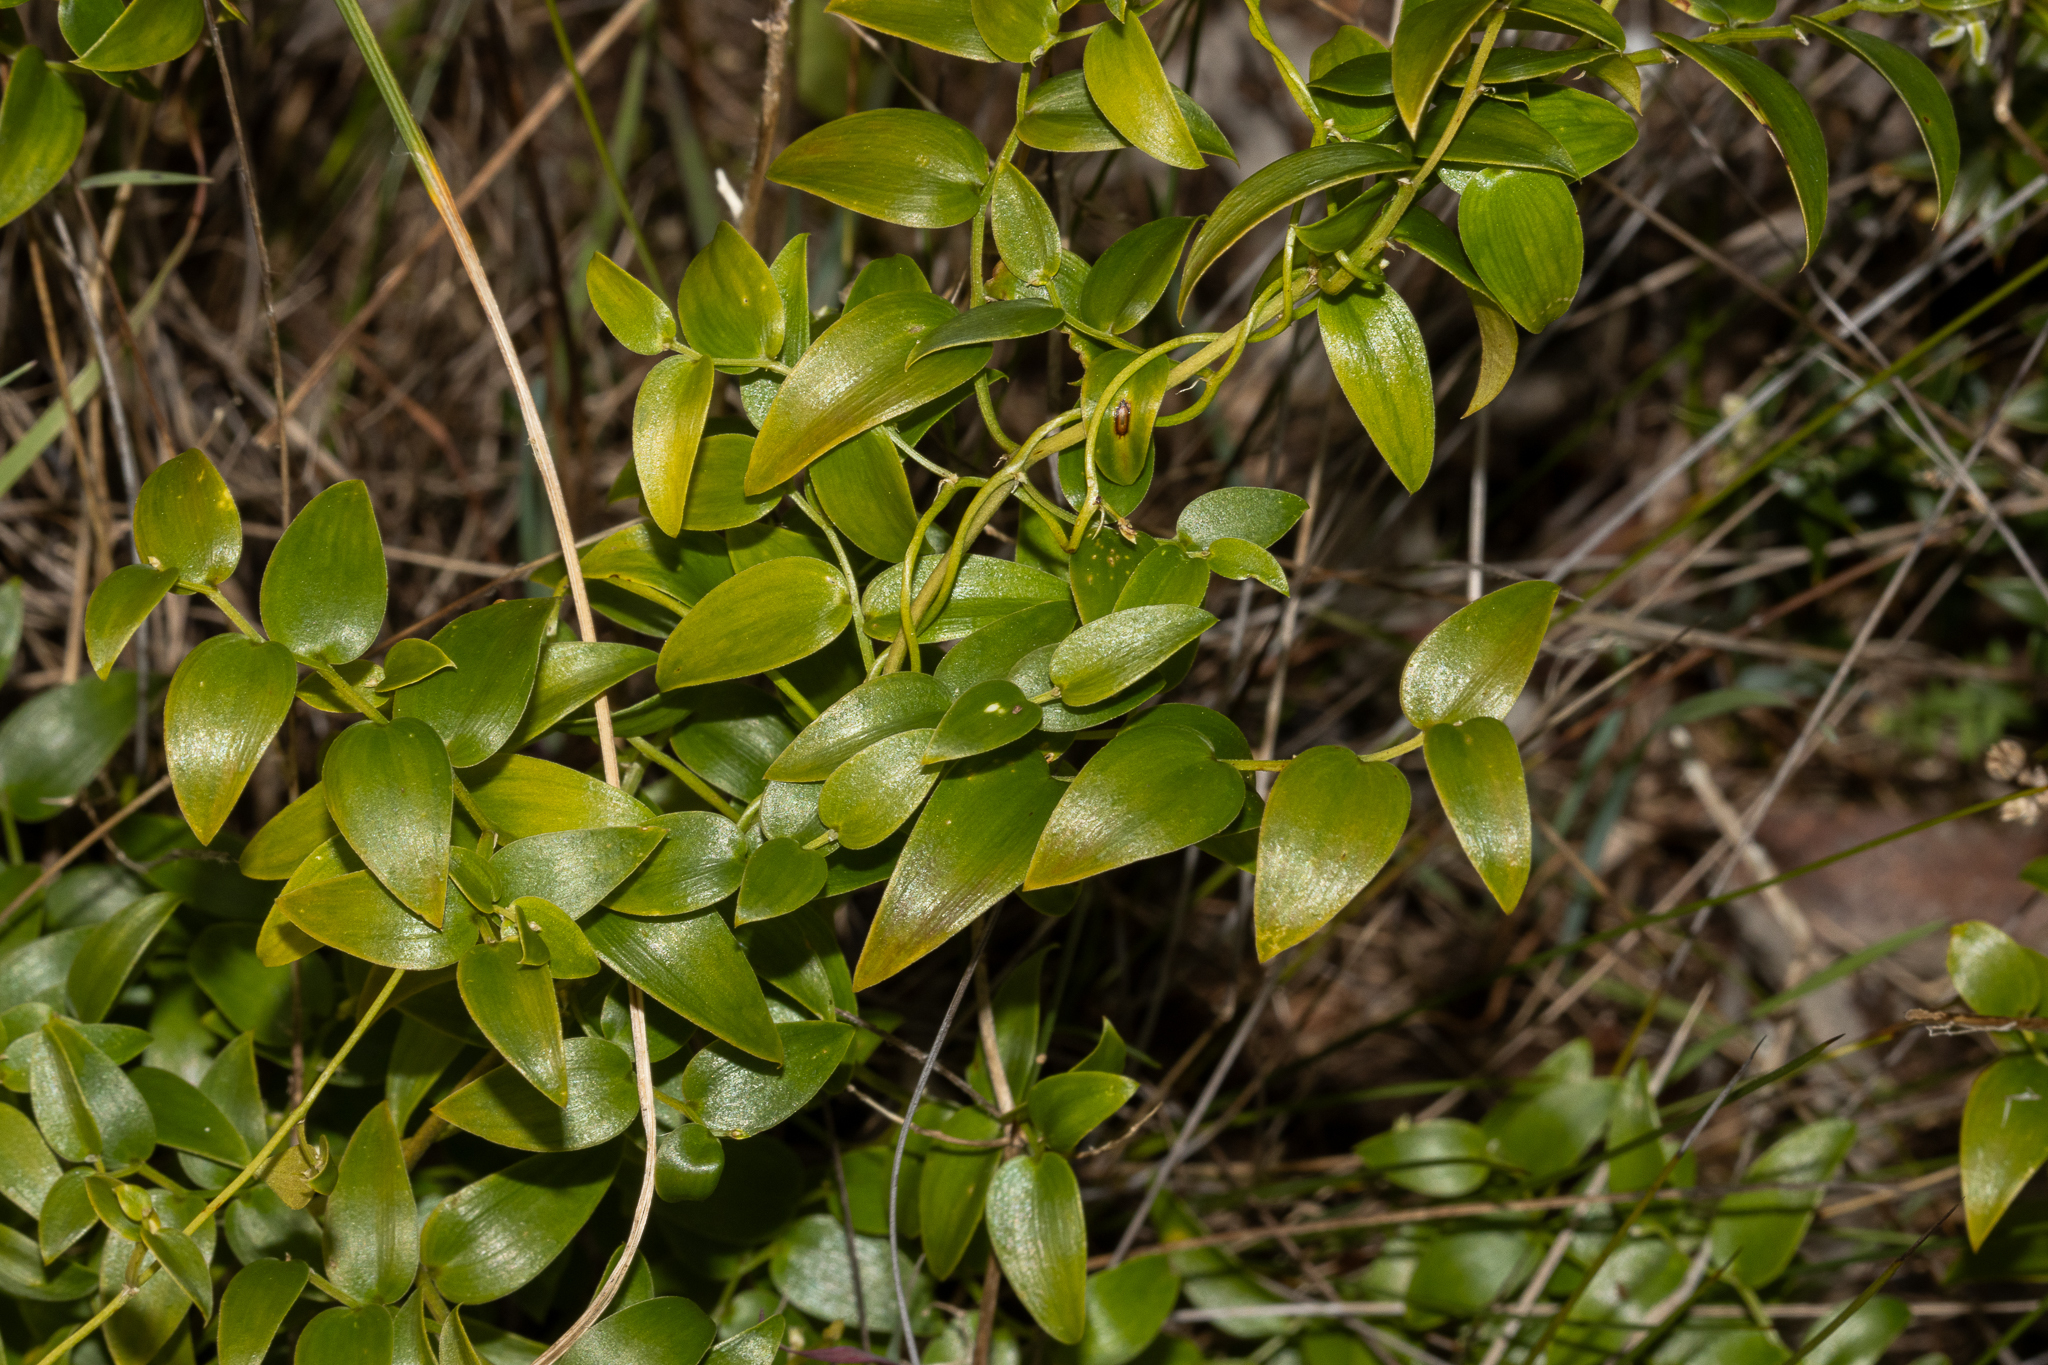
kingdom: Plantae
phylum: Tracheophyta
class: Liliopsida
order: Asparagales
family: Asparagaceae
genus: Asparagus
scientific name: Asparagus asparagoides
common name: African asparagus fern
